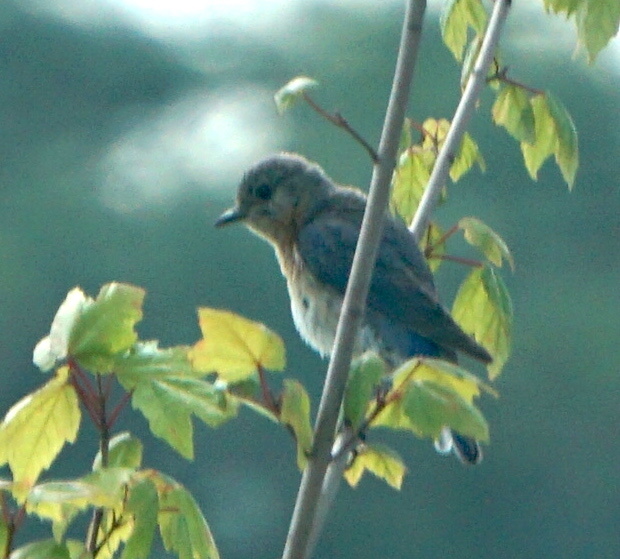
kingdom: Animalia
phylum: Chordata
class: Aves
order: Passeriformes
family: Turdidae
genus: Sialia
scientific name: Sialia sialis
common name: Eastern bluebird
